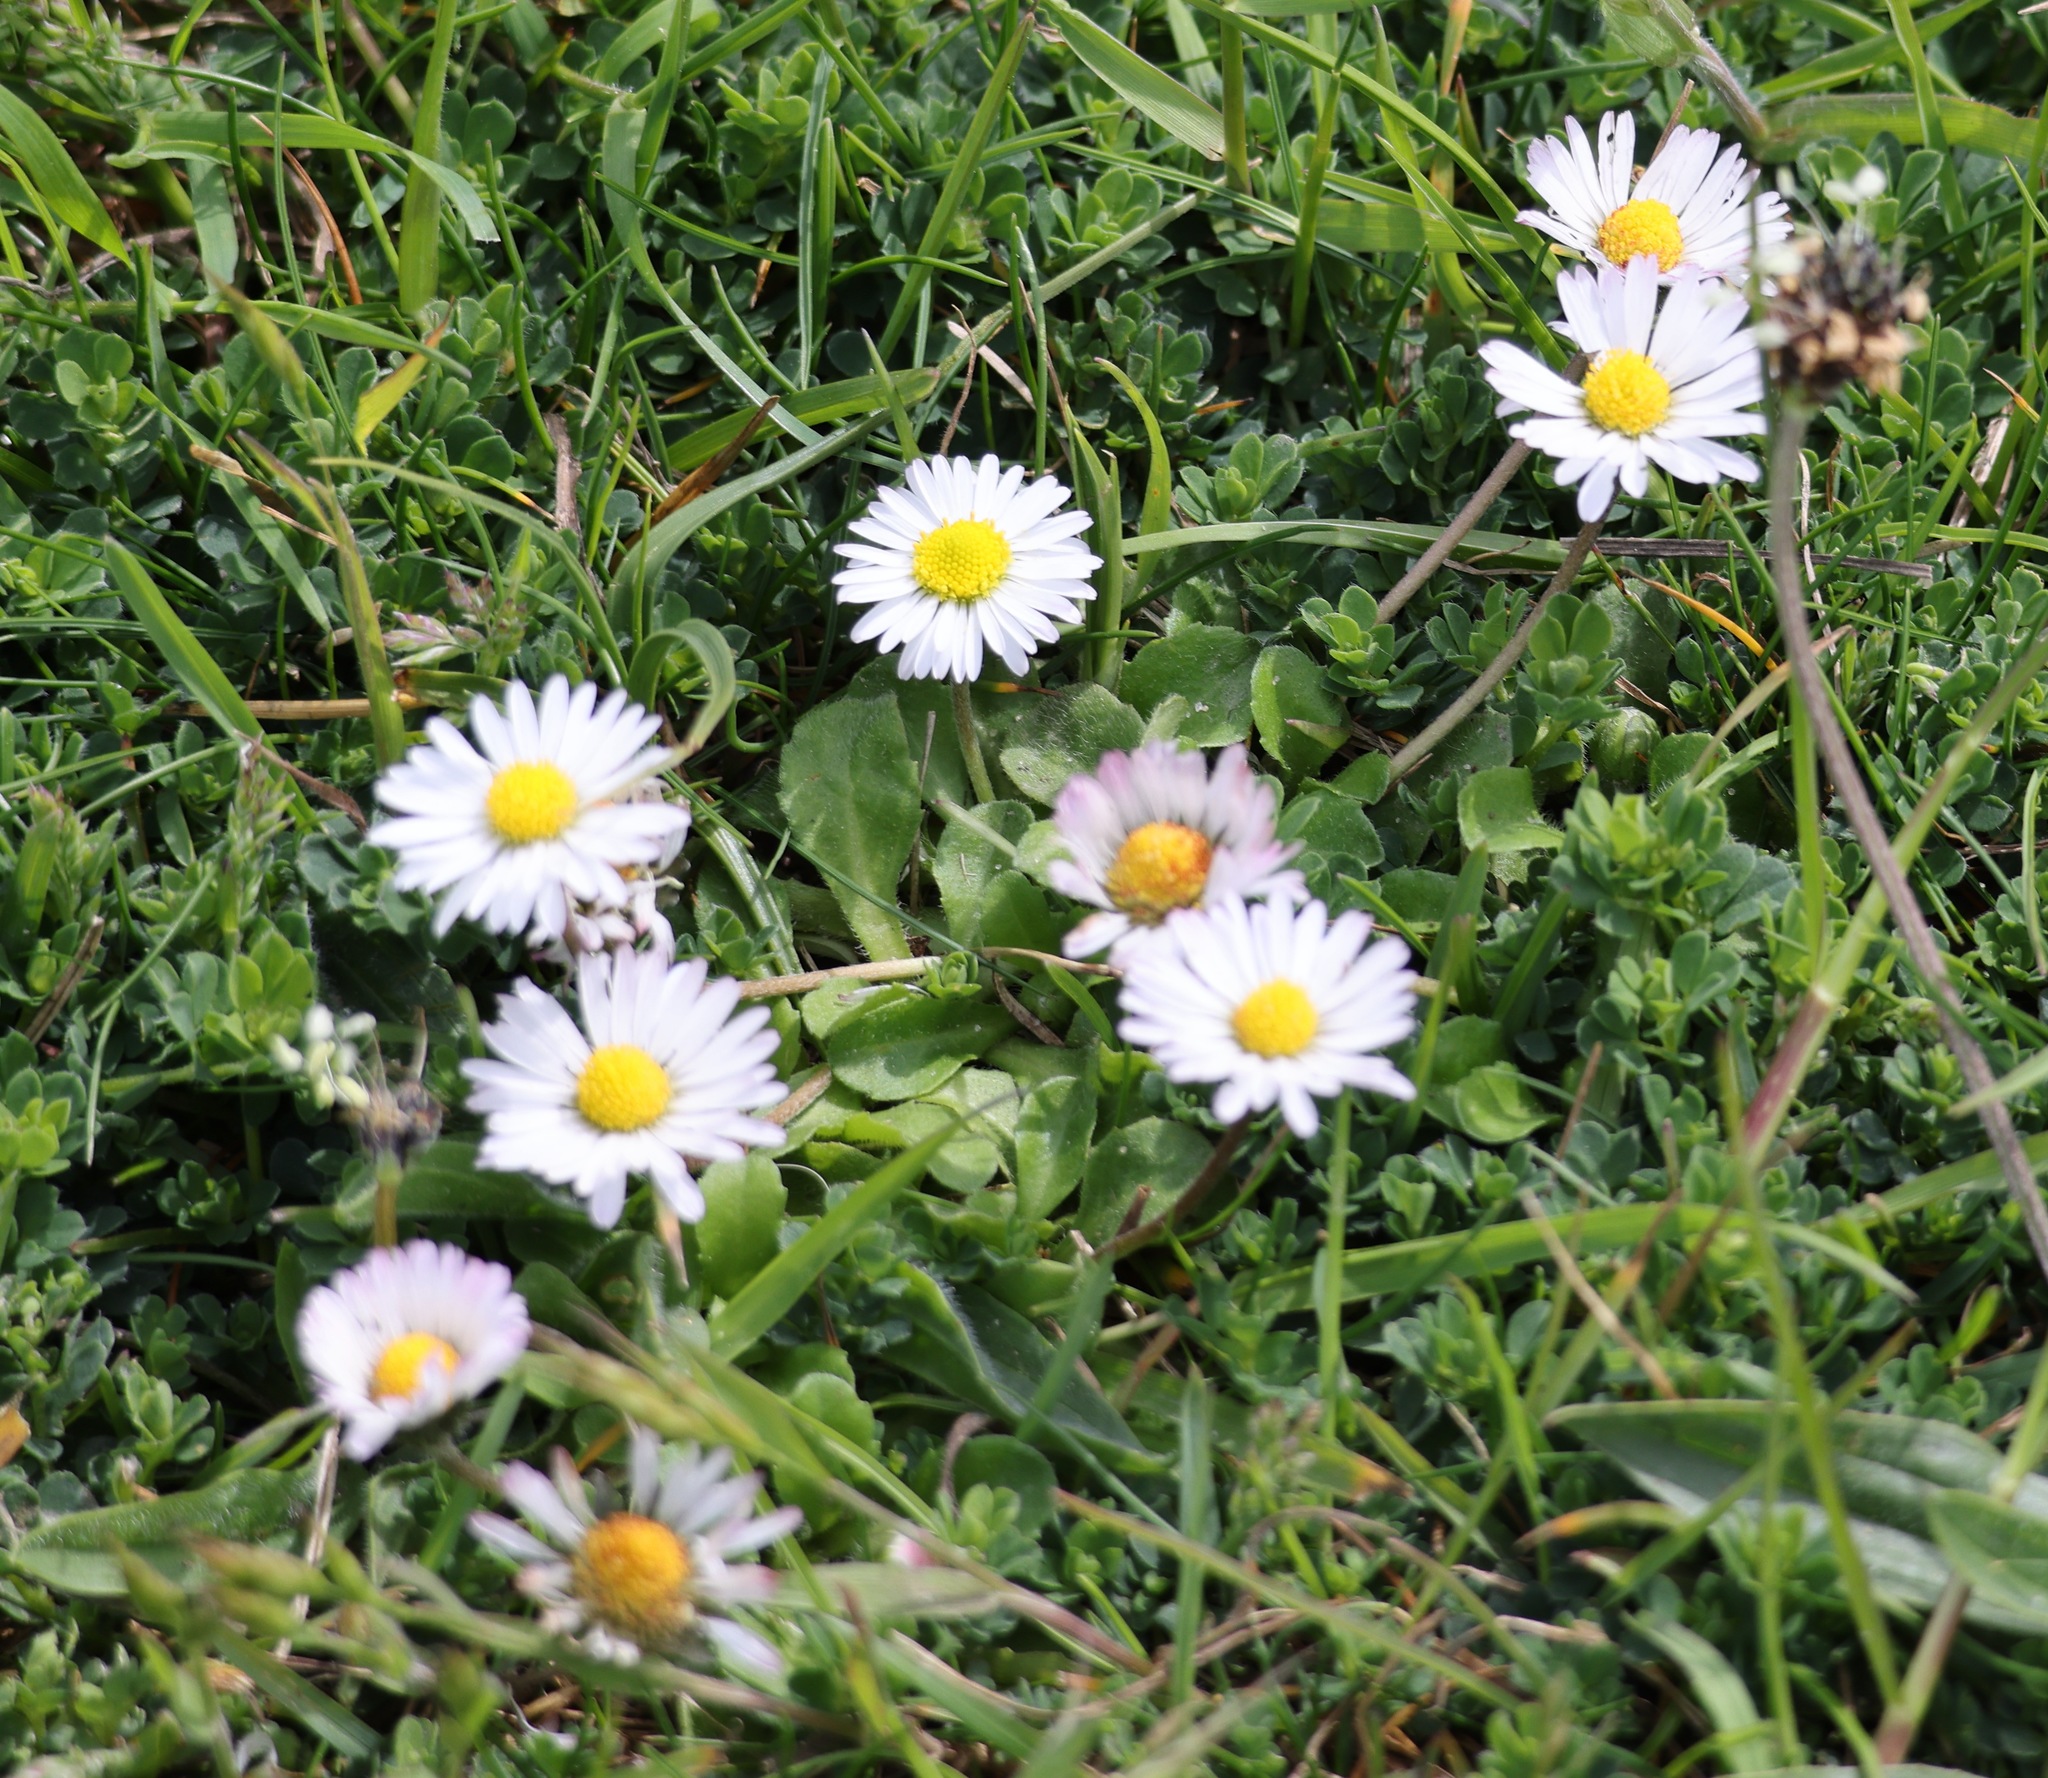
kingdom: Plantae
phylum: Tracheophyta
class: Magnoliopsida
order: Asterales
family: Asteraceae
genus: Bellis
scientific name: Bellis perennis
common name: Lawndaisy
